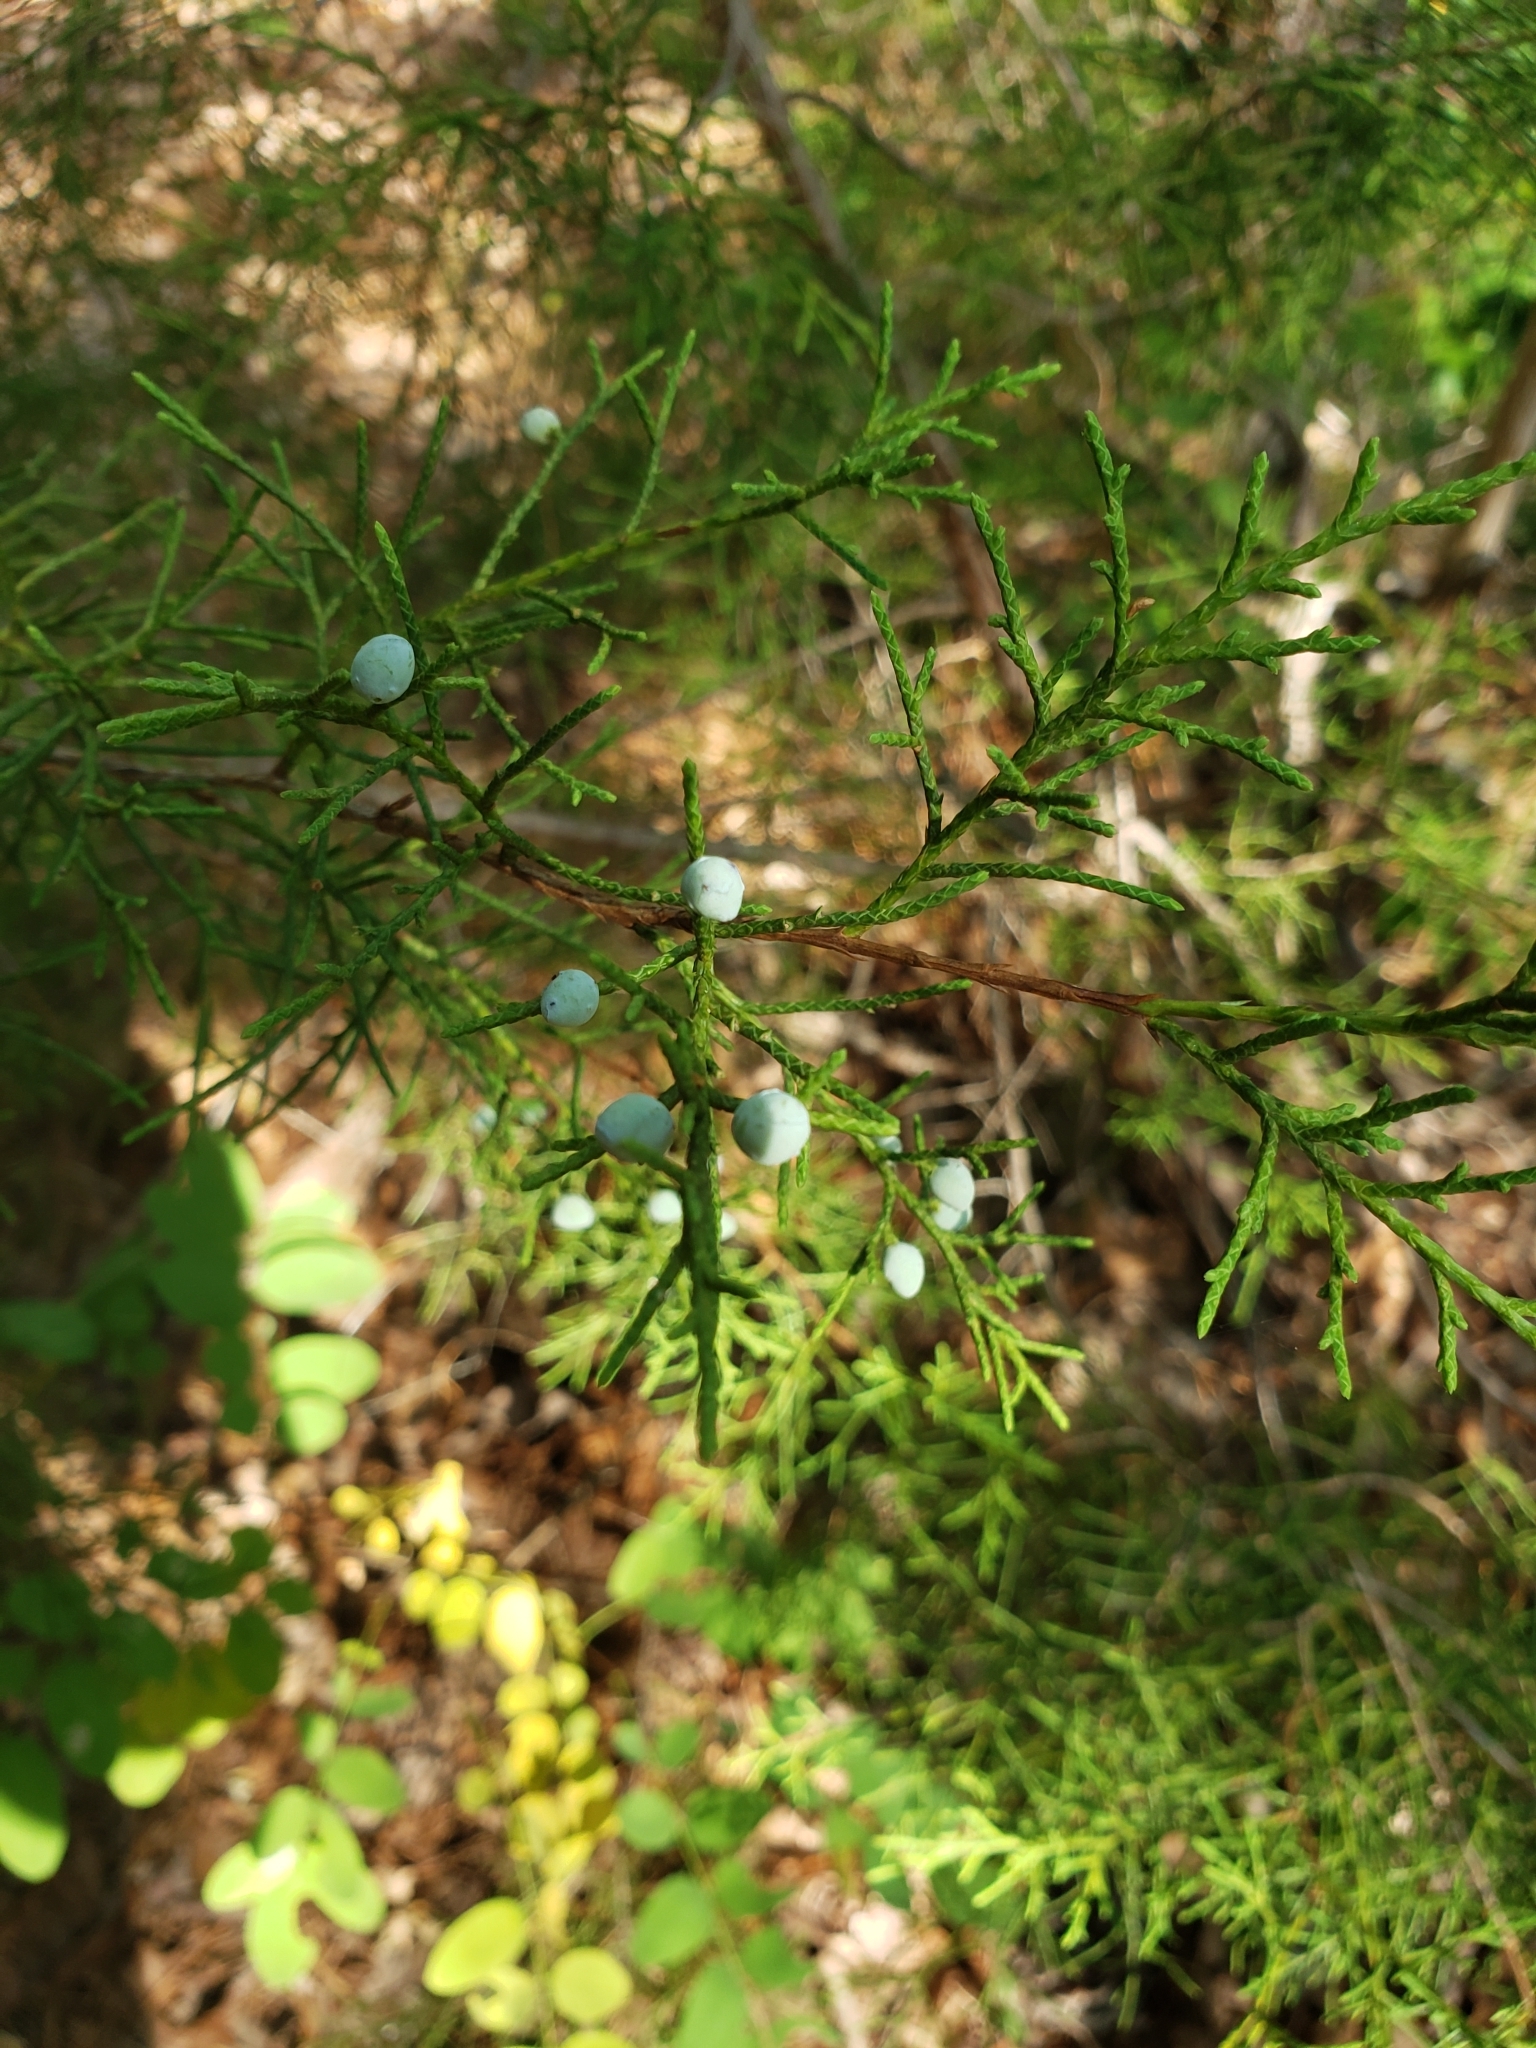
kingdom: Plantae
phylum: Tracheophyta
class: Pinopsida
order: Pinales
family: Cupressaceae
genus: Juniperus
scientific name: Juniperus virginiana
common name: Red juniper
